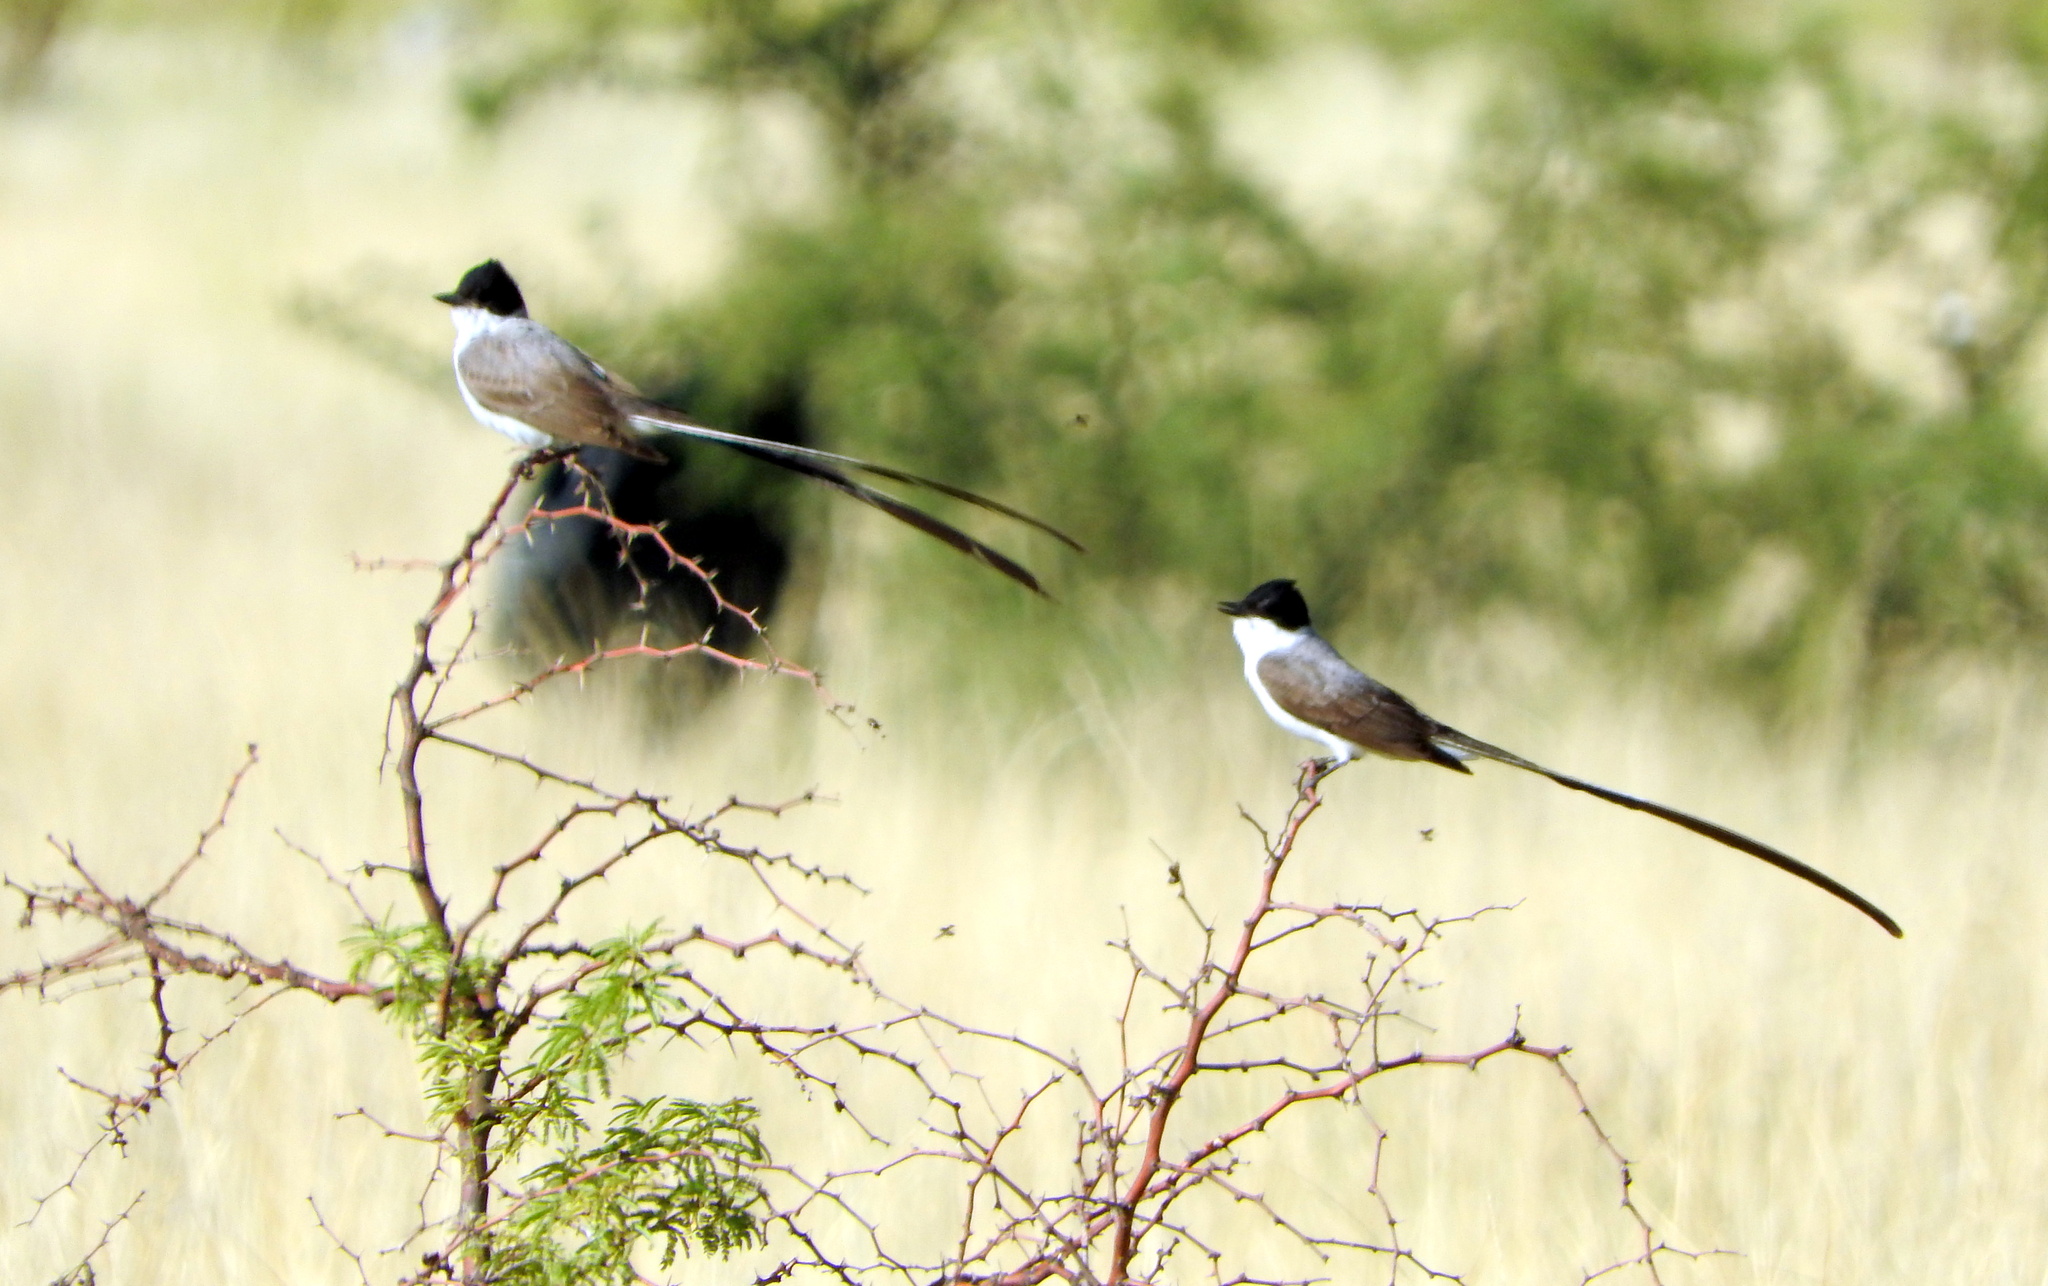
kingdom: Animalia
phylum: Chordata
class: Aves
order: Passeriformes
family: Tyrannidae
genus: Tyrannus
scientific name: Tyrannus savana
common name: Fork-tailed flycatcher
